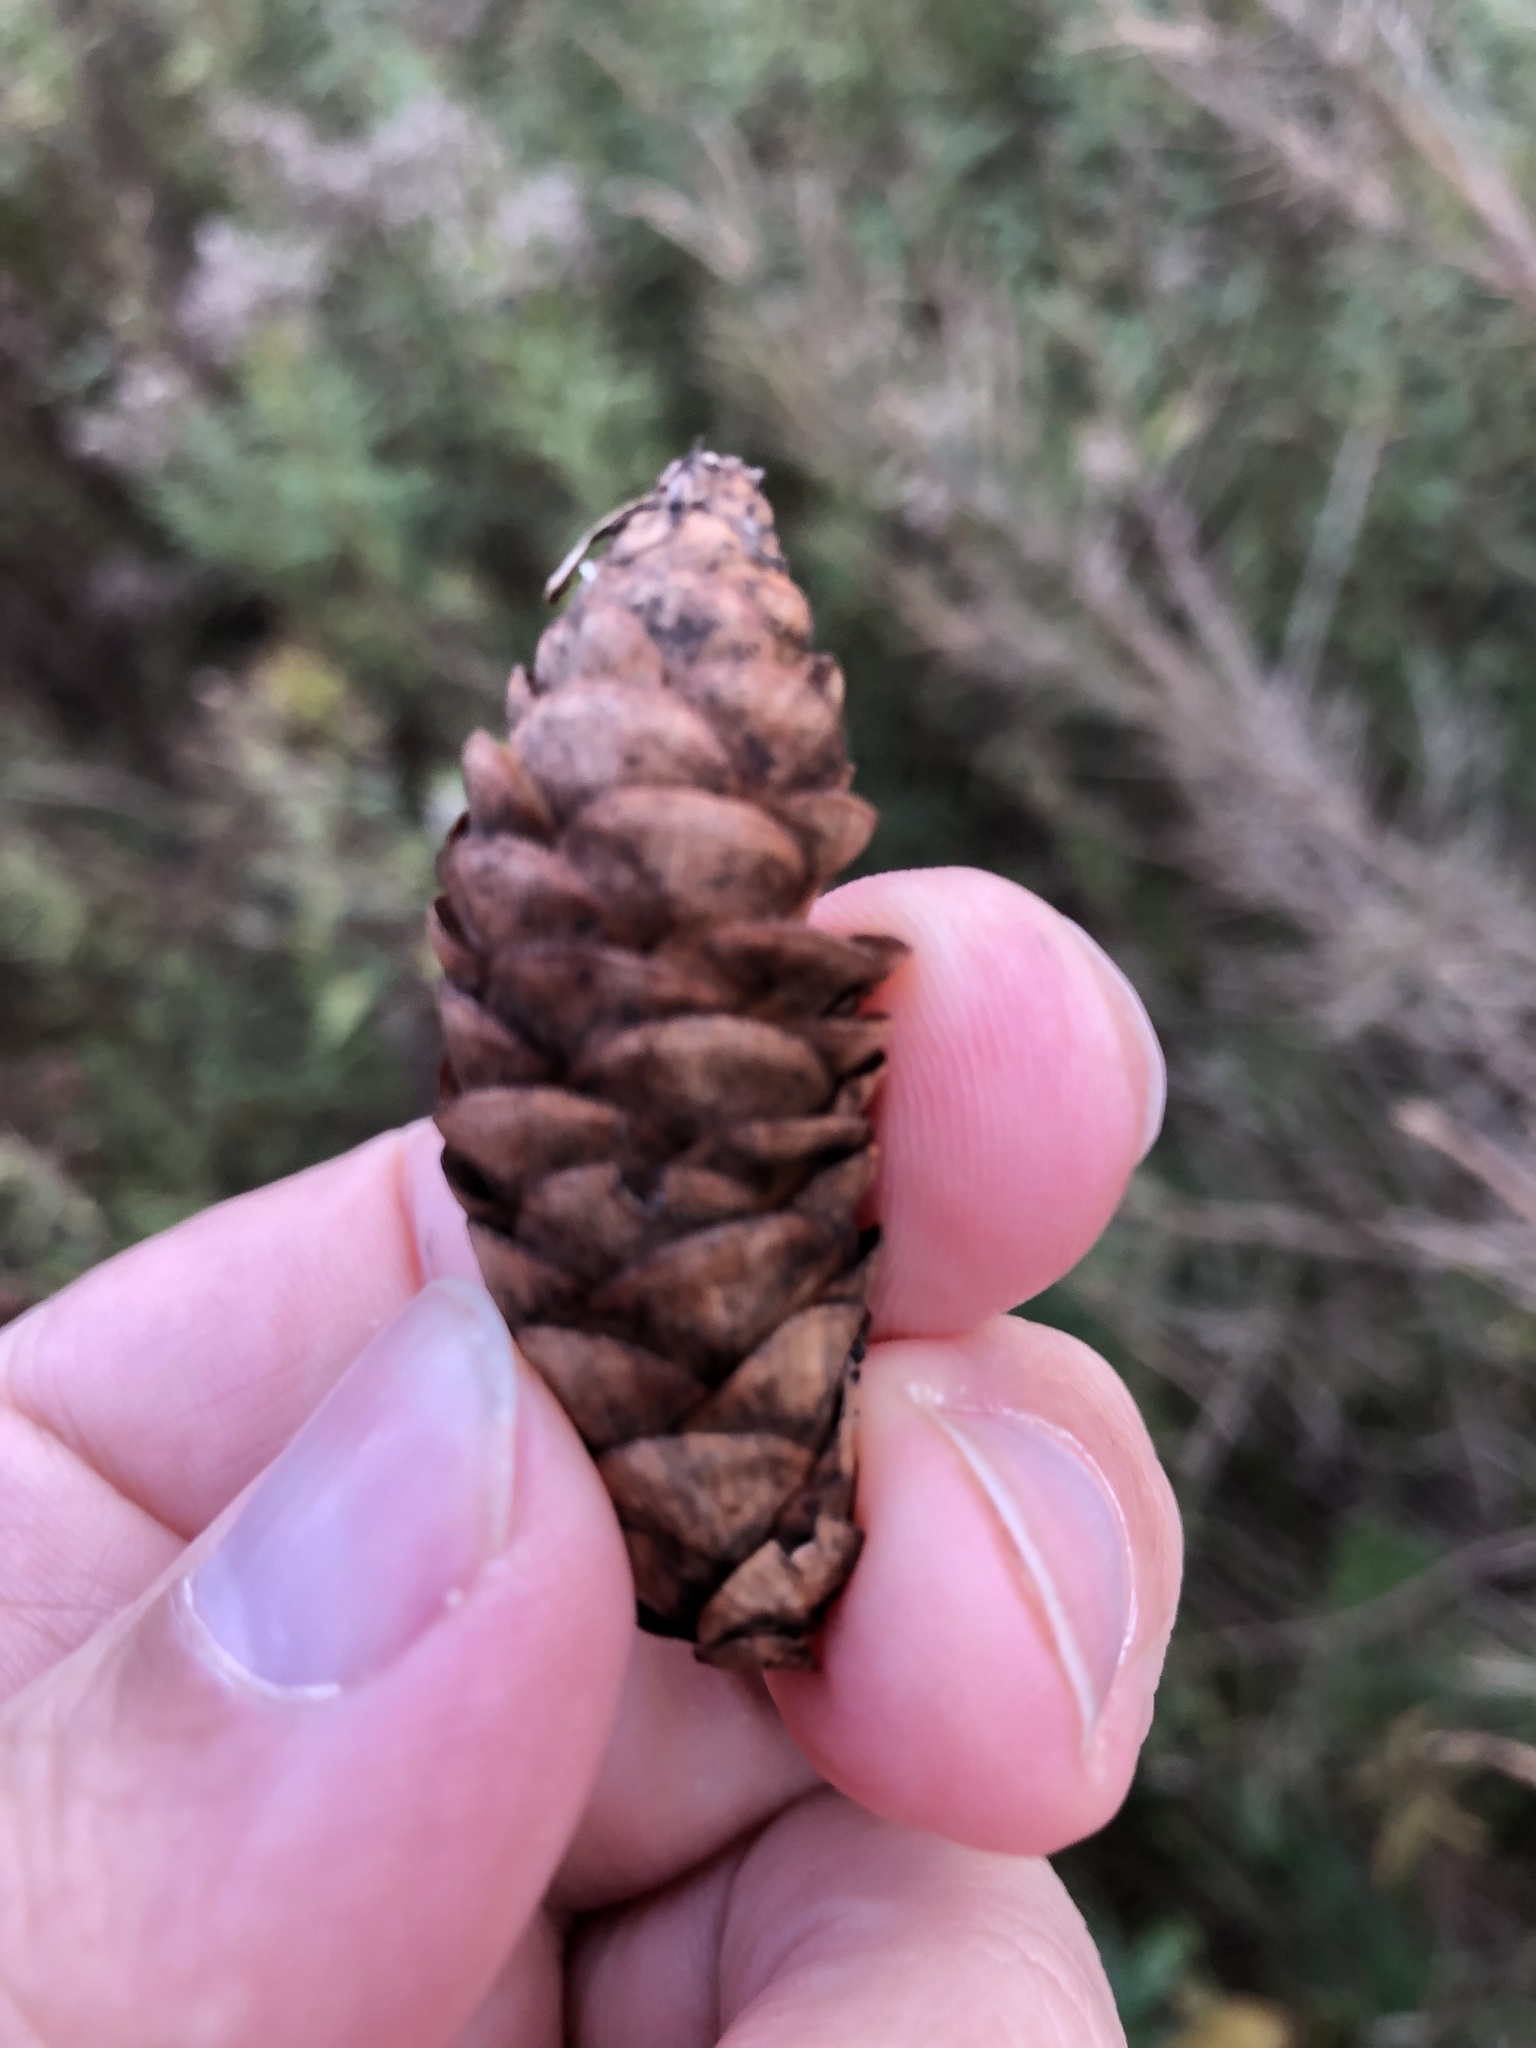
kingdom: Plantae
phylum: Tracheophyta
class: Pinopsida
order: Pinales
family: Pinaceae
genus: Picea
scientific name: Picea glauca
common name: White spruce
